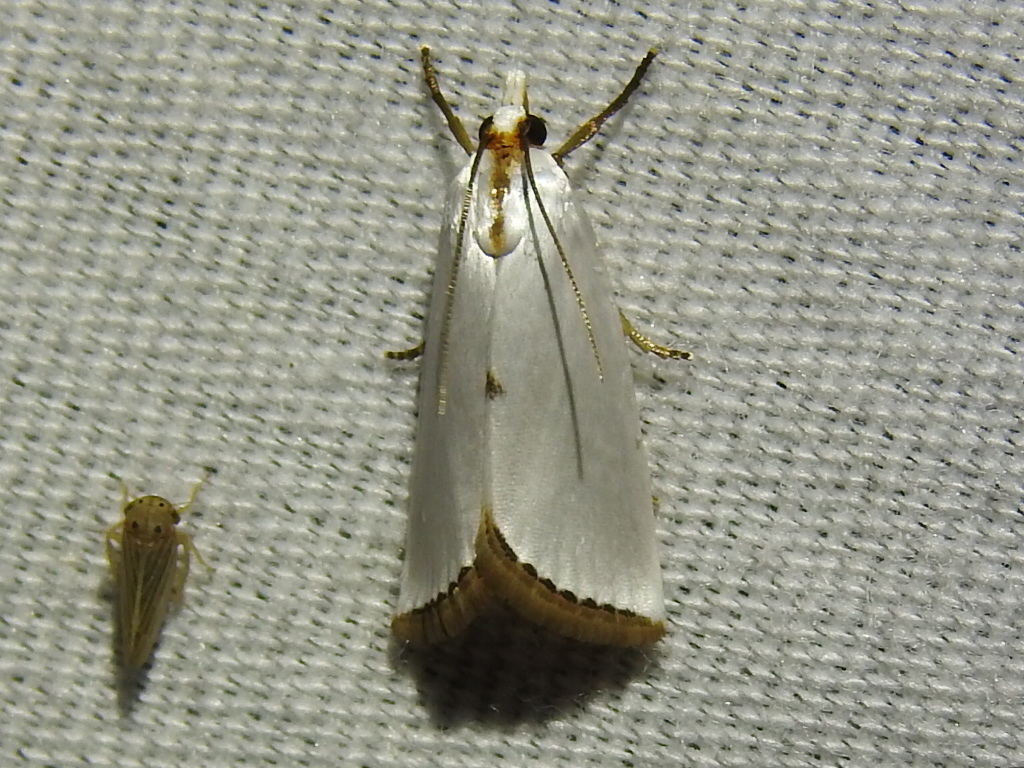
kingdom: Animalia
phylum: Arthropoda
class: Insecta
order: Lepidoptera
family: Crambidae
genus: Argyria
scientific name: Argyria nivalis
